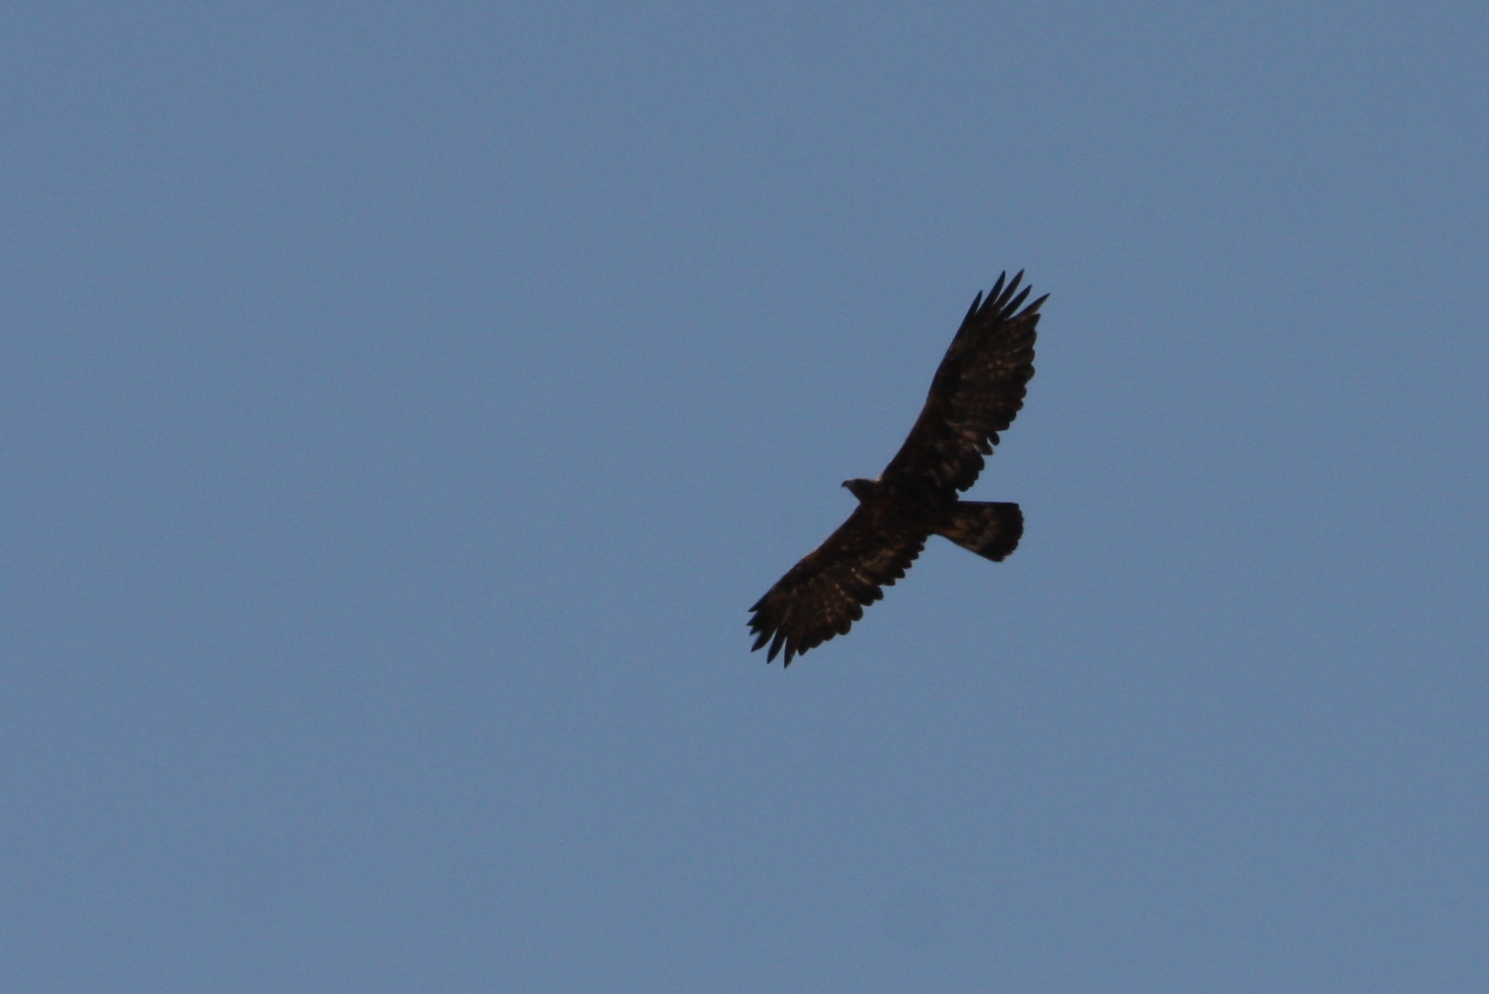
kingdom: Animalia
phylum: Chordata
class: Aves
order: Accipitriformes
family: Accipitridae
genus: Aquila
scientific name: Aquila chrysaetos
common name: Golden eagle
